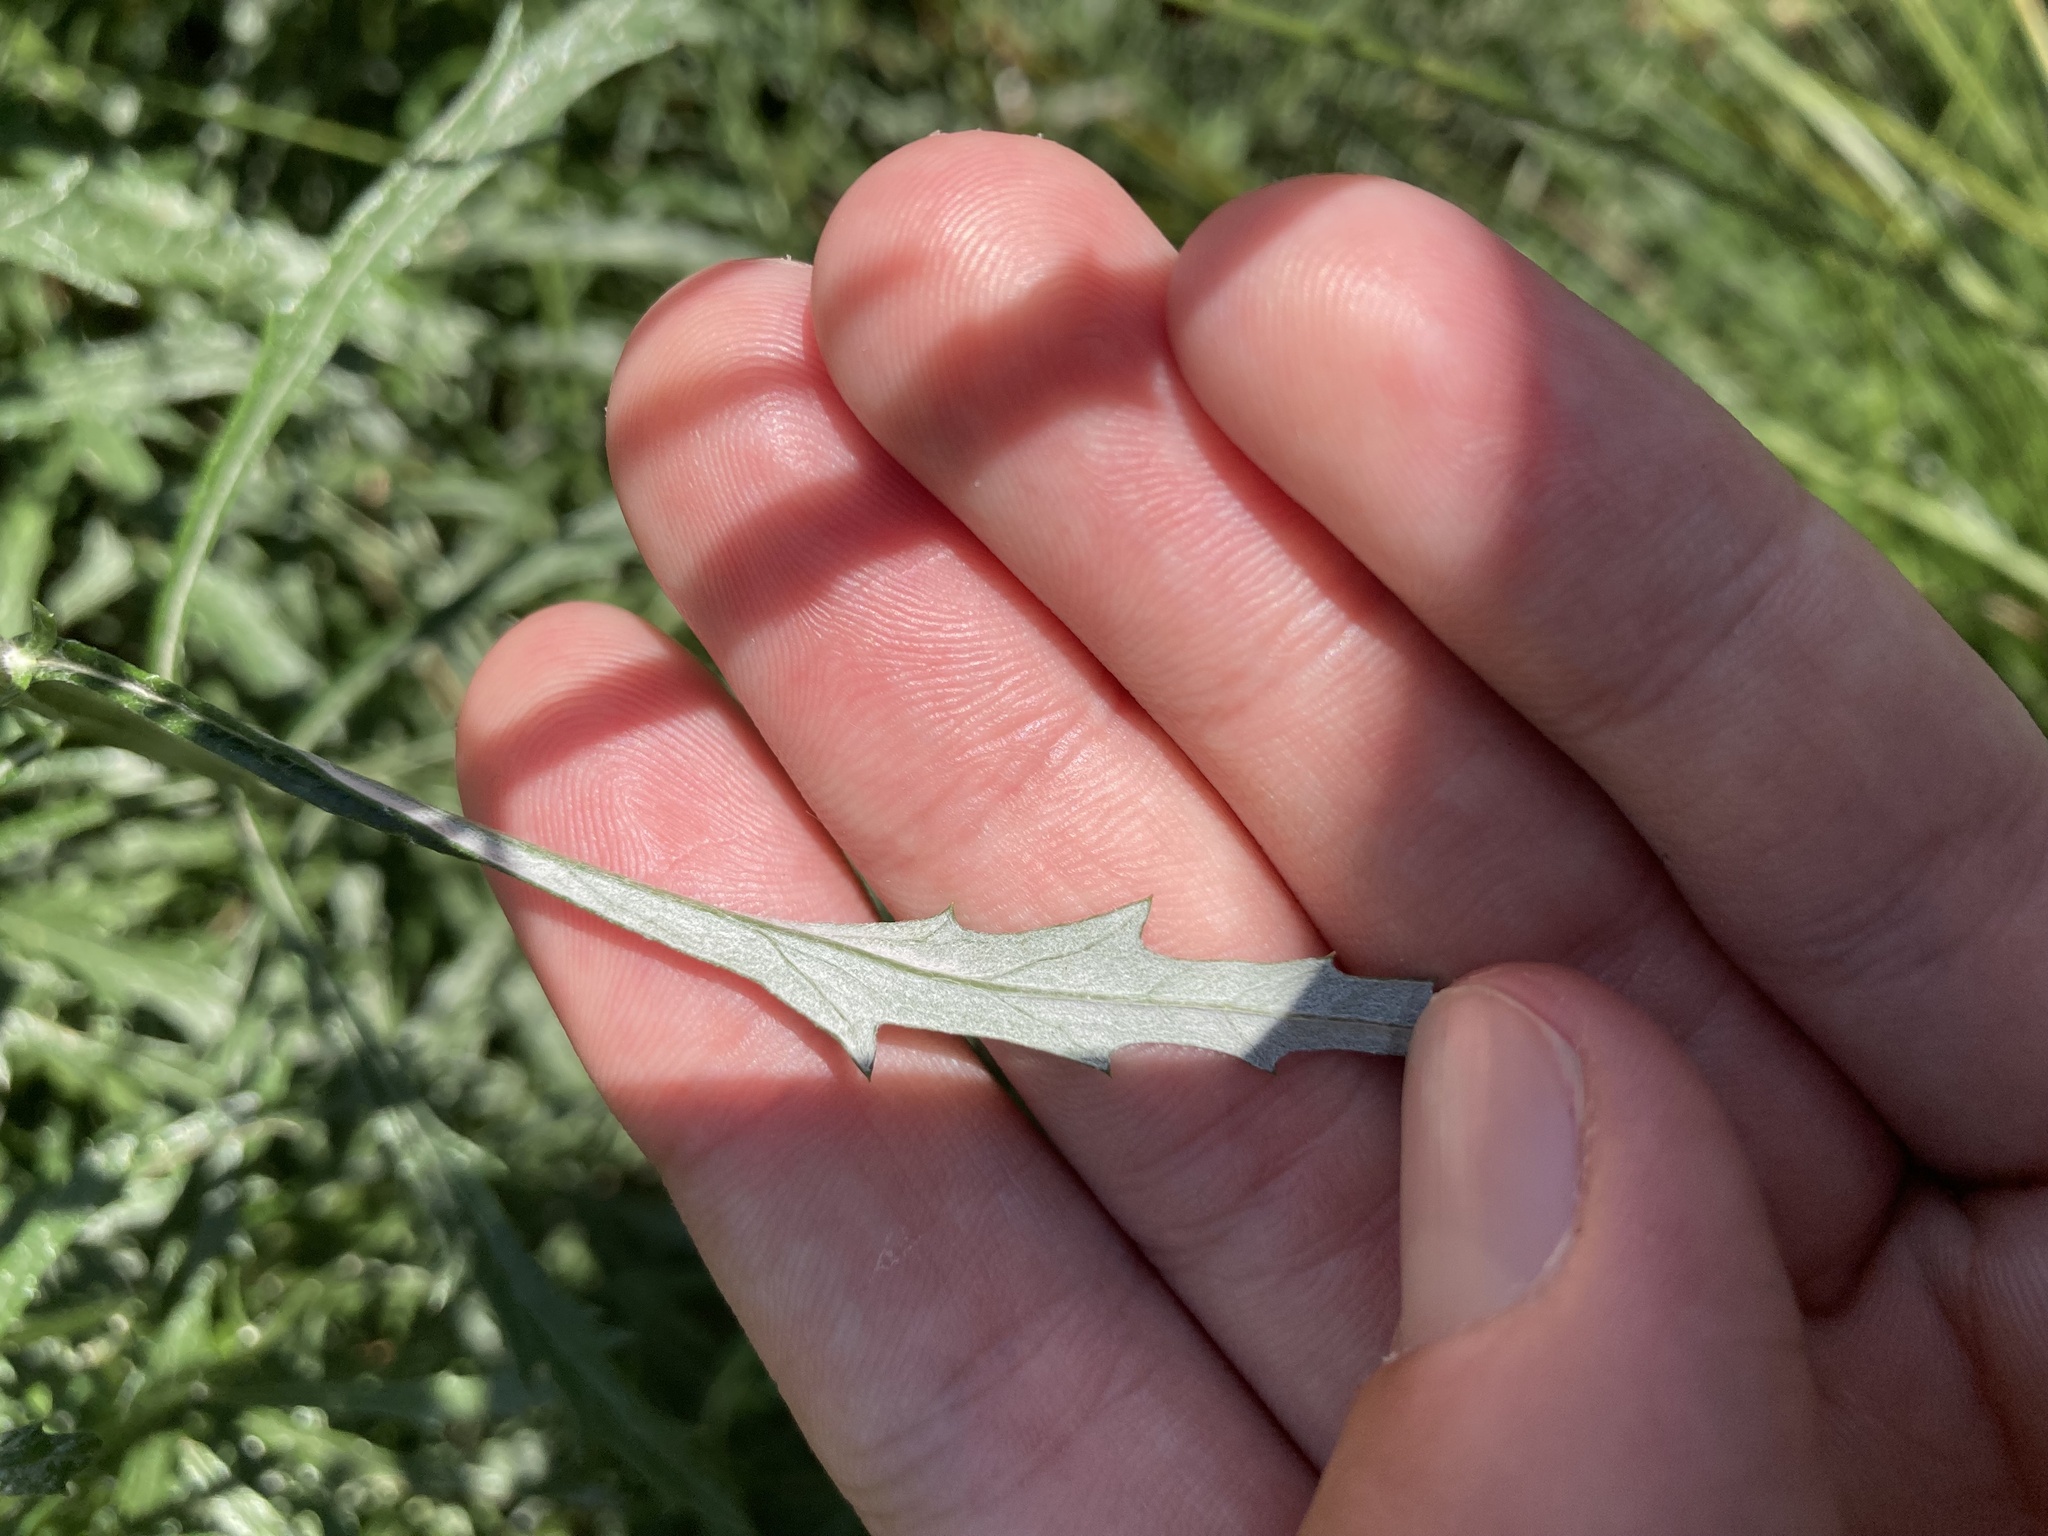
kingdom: Plantae
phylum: Tracheophyta
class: Magnoliopsida
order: Asterales
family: Asteraceae
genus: Senecio
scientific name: Senecio pterophorus
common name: Shoddy ragwort
